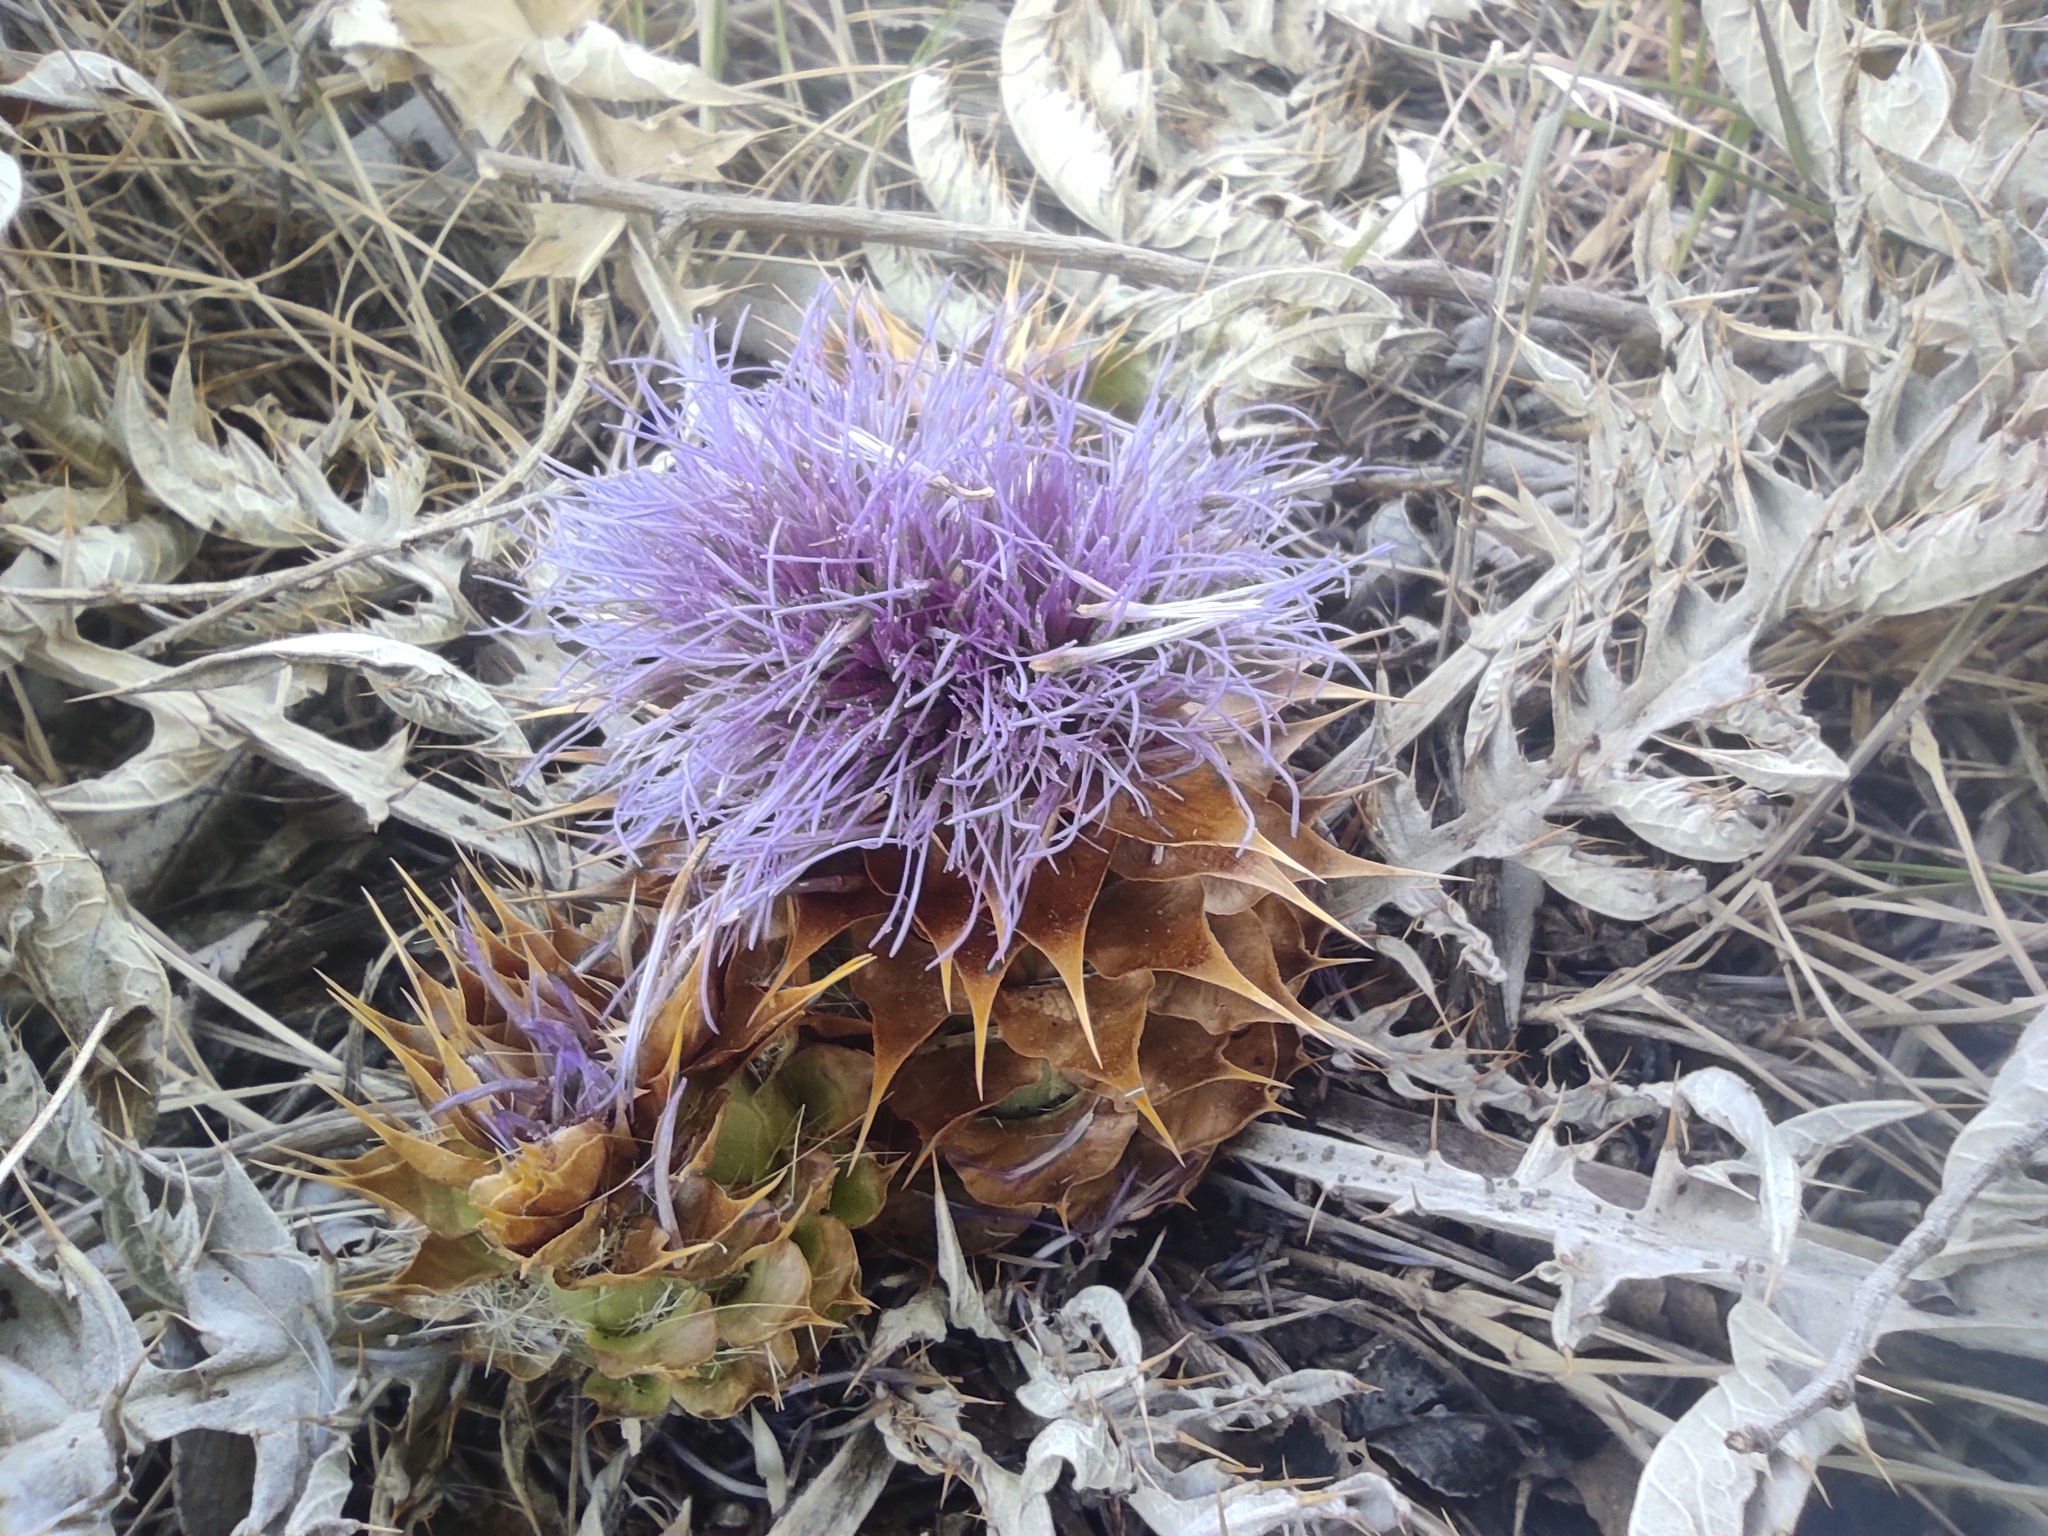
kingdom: Plantae
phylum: Tracheophyta
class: Magnoliopsida
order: Asterales
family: Asteraceae
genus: Cynara
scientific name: Cynara tournefortii
